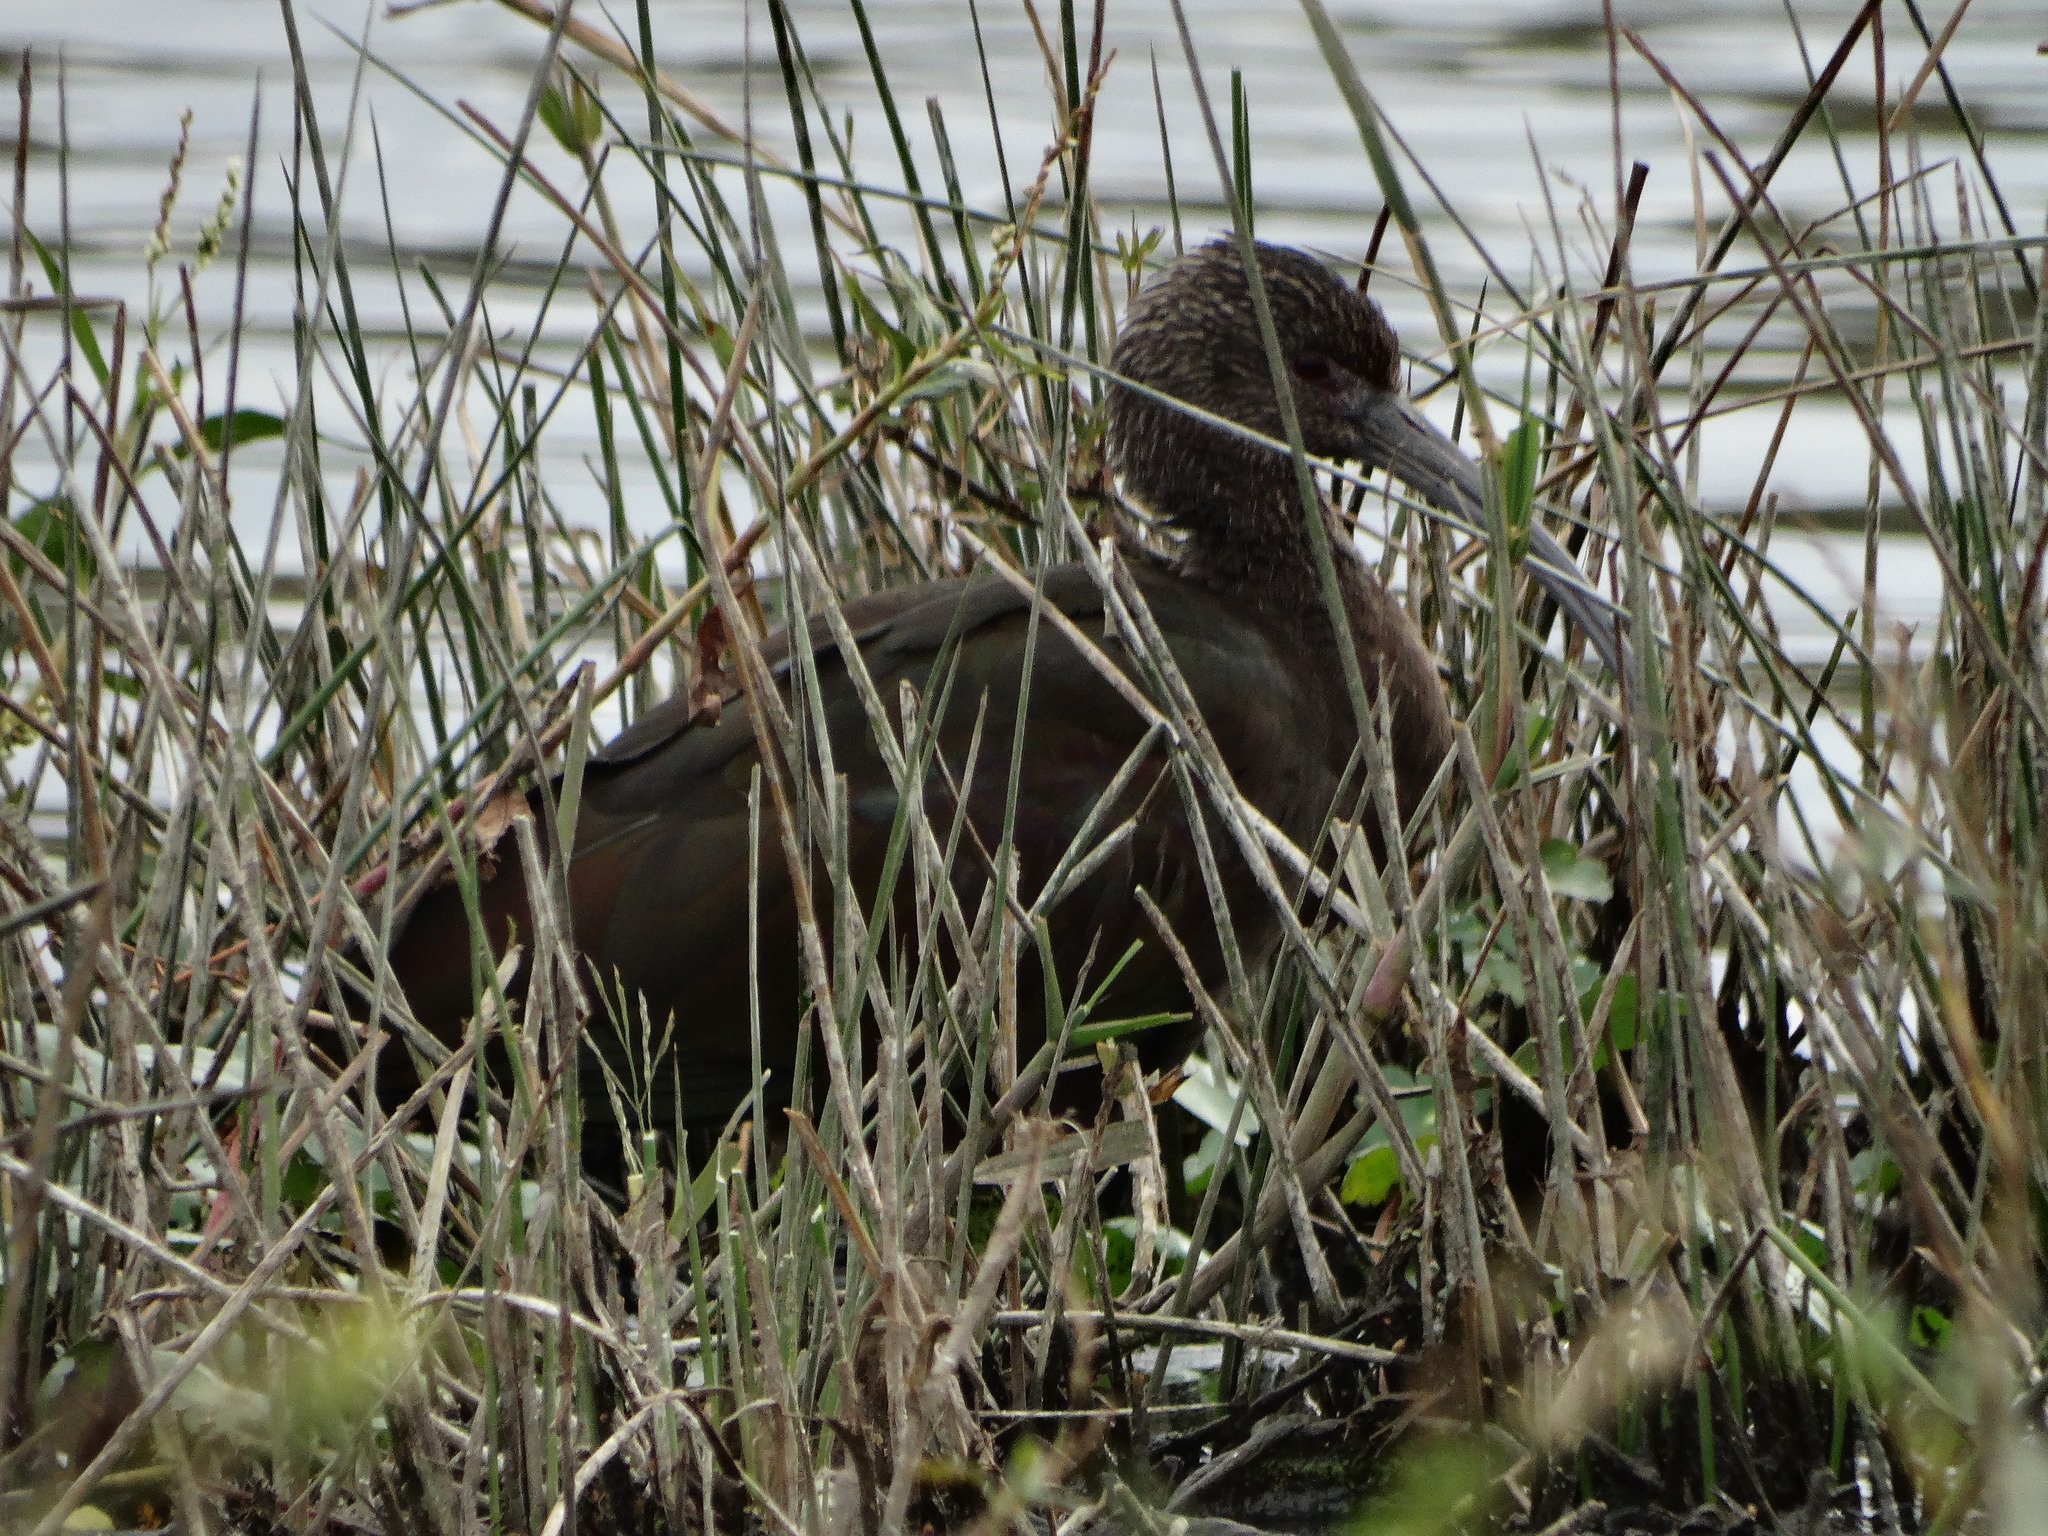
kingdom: Animalia
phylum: Chordata
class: Aves
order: Pelecaniformes
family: Threskiornithidae
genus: Plegadis
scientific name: Plegadis chihi
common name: White-faced ibis
